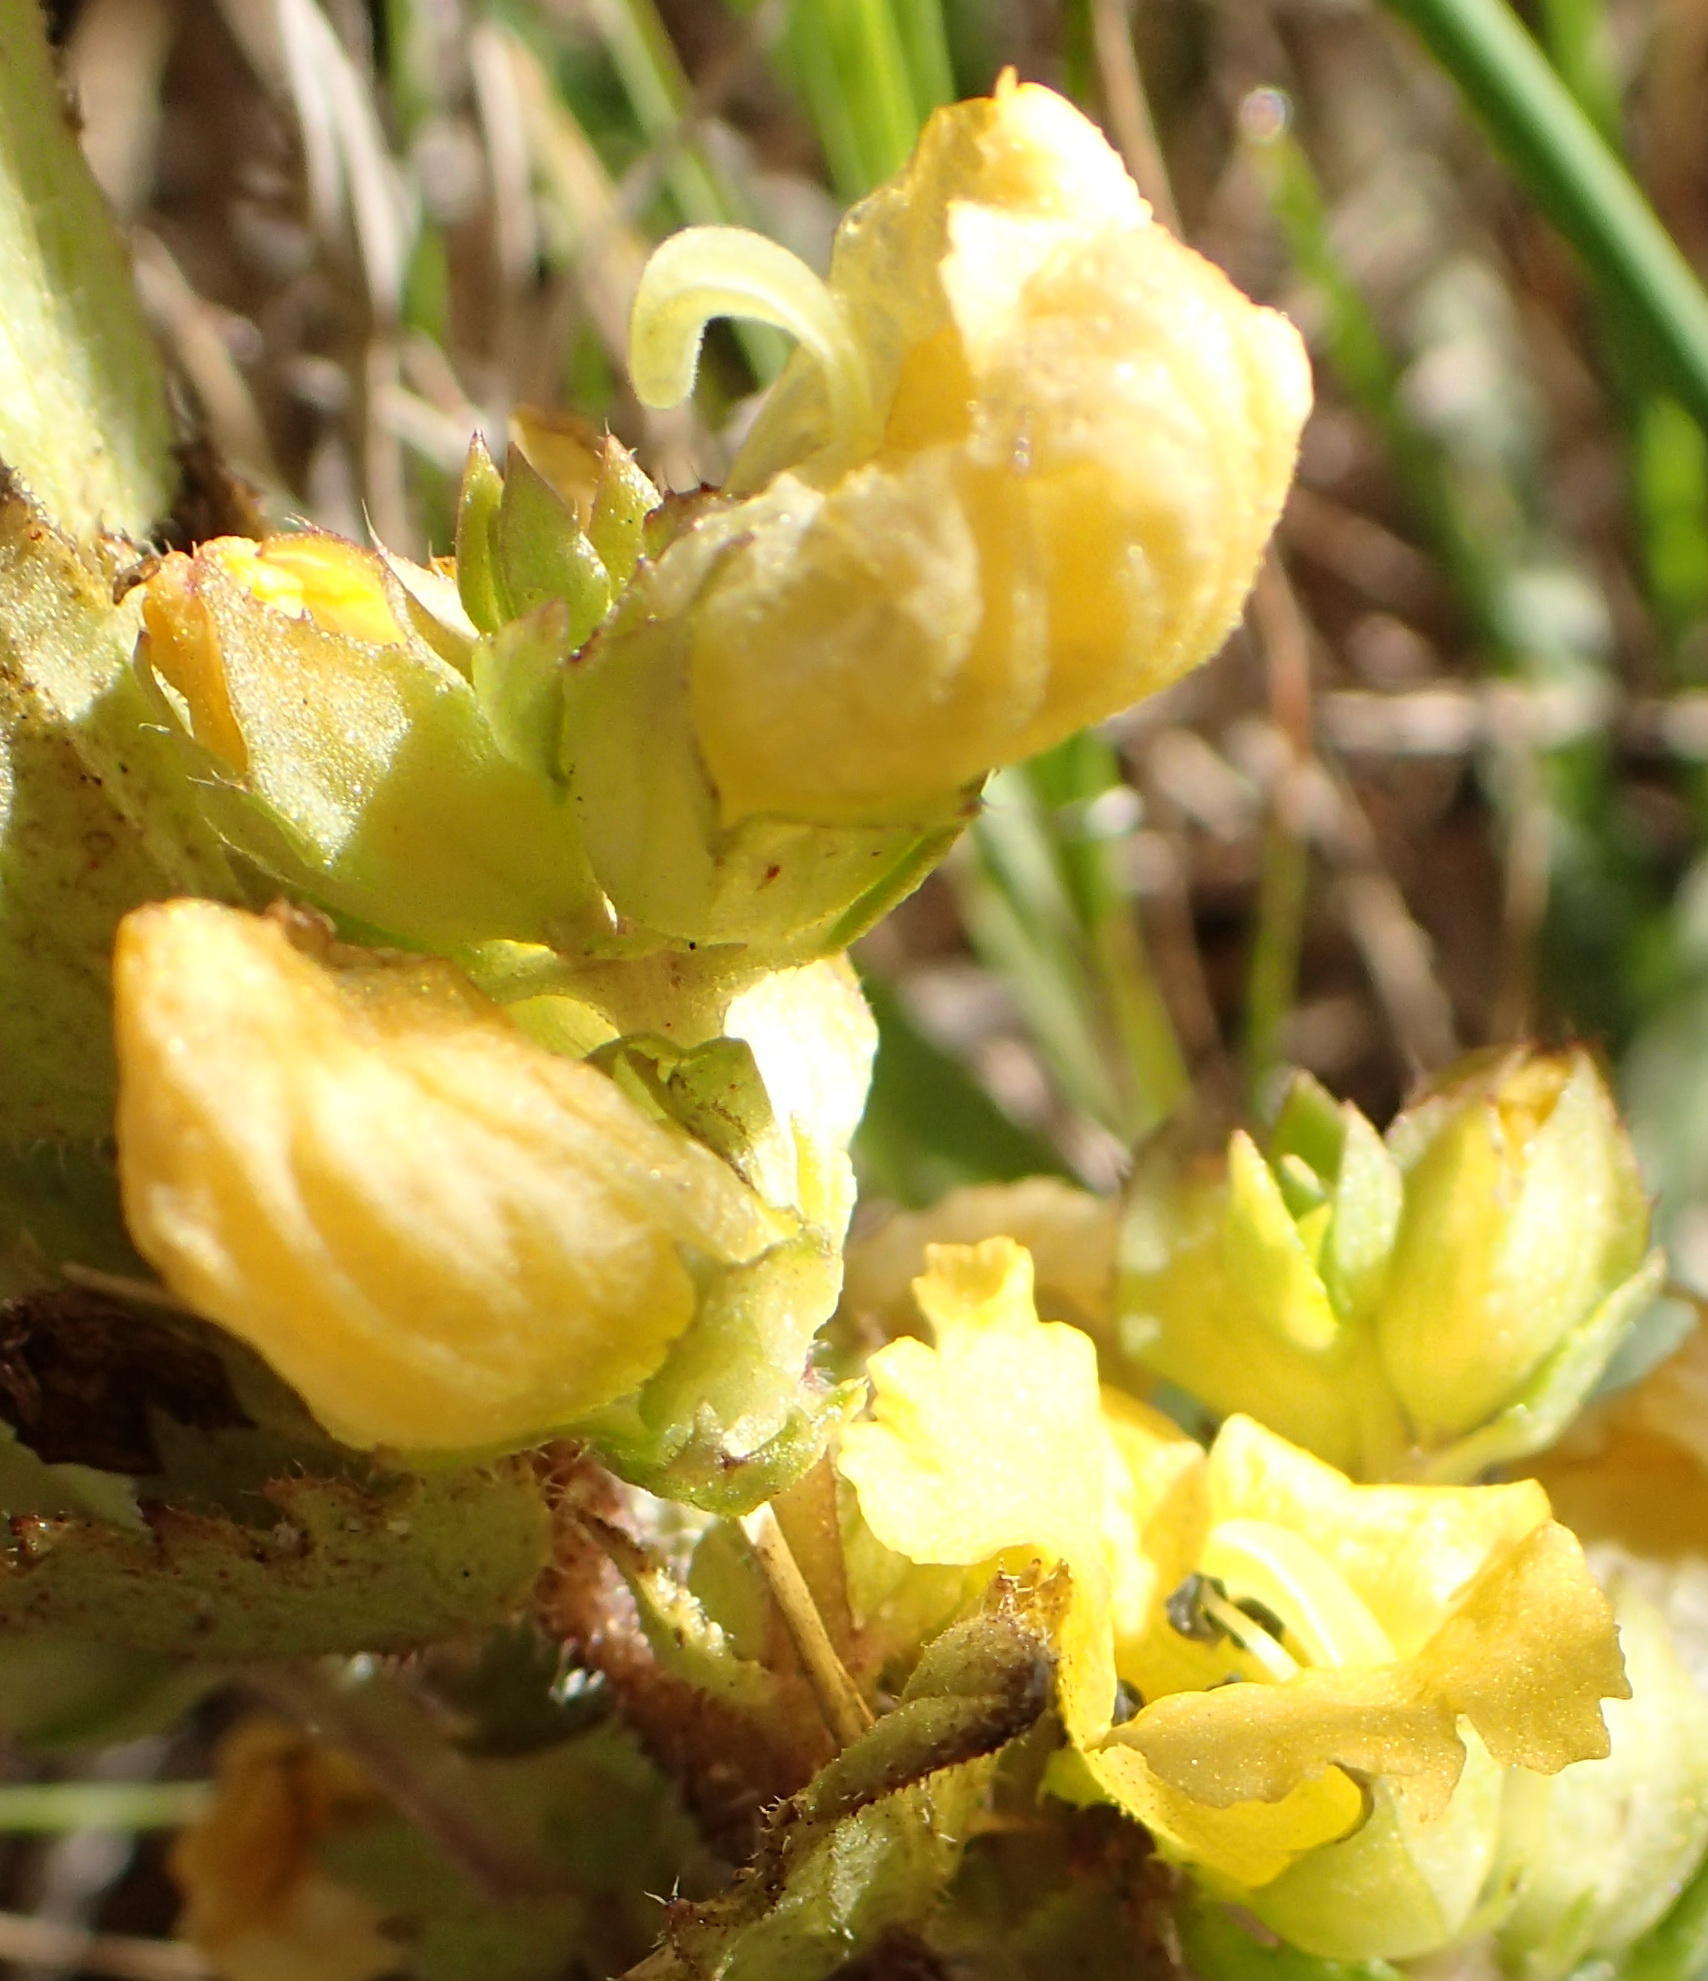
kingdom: Plantae
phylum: Tracheophyta
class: Magnoliopsida
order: Lamiales
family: Orobanchaceae
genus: Alectra
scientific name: Alectra sessiliflora
